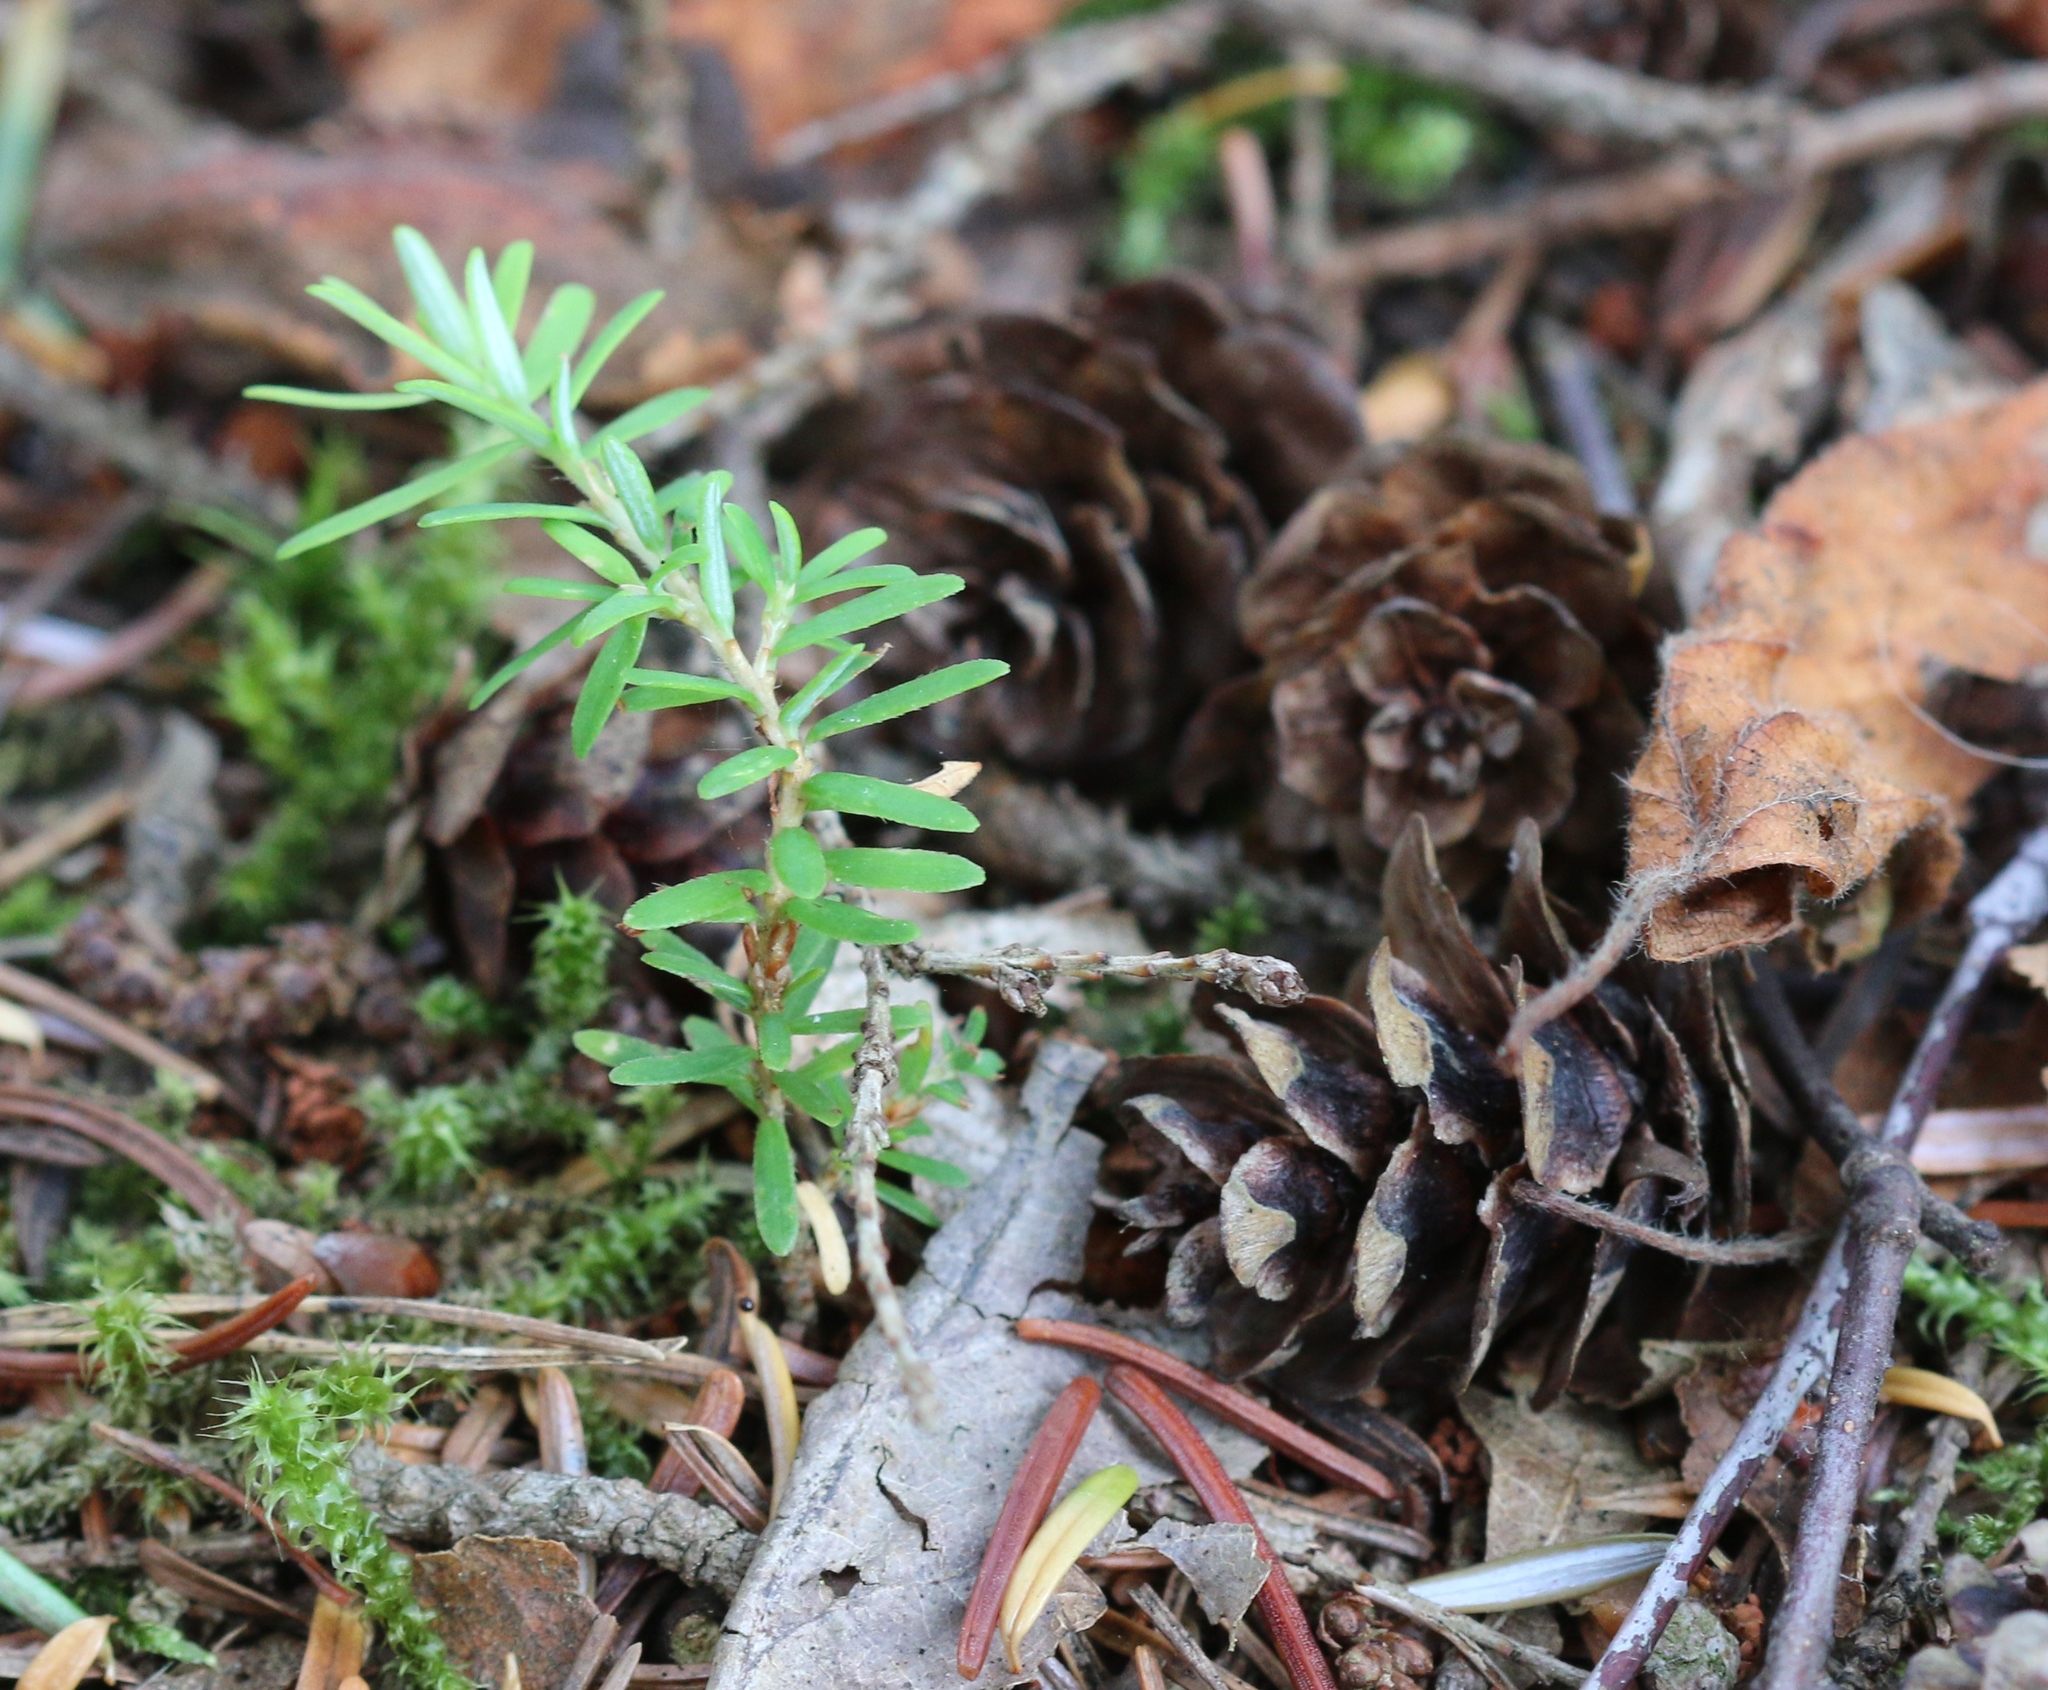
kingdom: Plantae
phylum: Tracheophyta
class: Pinopsida
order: Pinales
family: Pinaceae
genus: Tsuga
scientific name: Tsuga heterophylla
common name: Western hemlock
